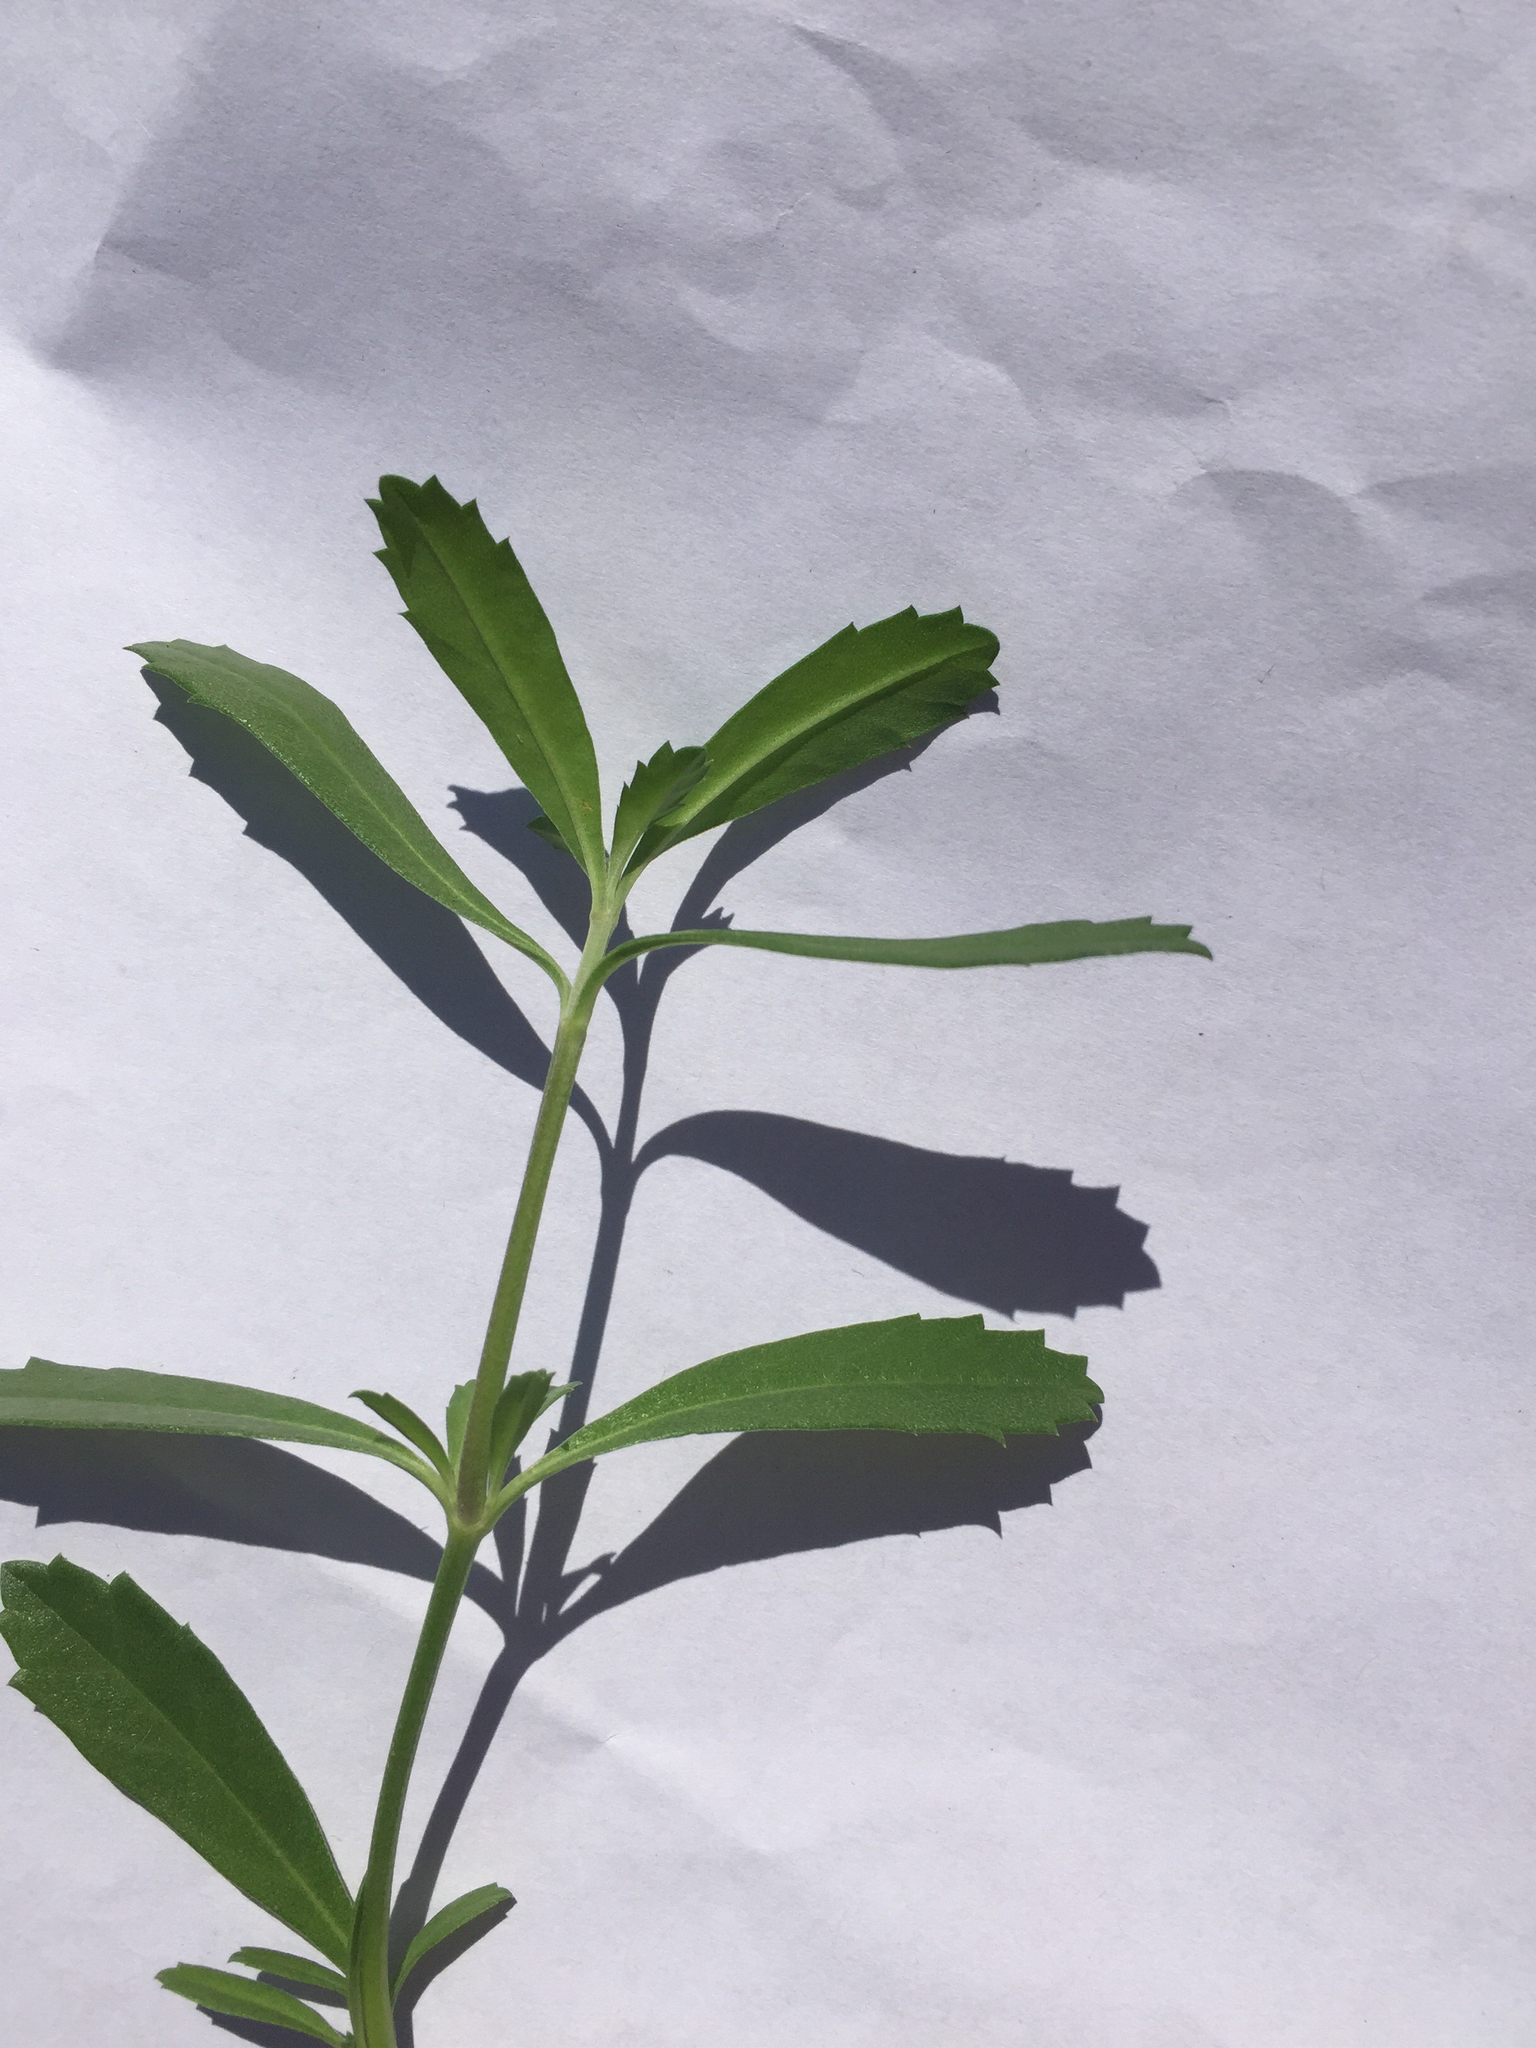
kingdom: Plantae
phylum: Tracheophyta
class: Magnoliopsida
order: Lamiales
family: Verbenaceae
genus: Phyla
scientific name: Phyla nodiflora
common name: Frogfruit
